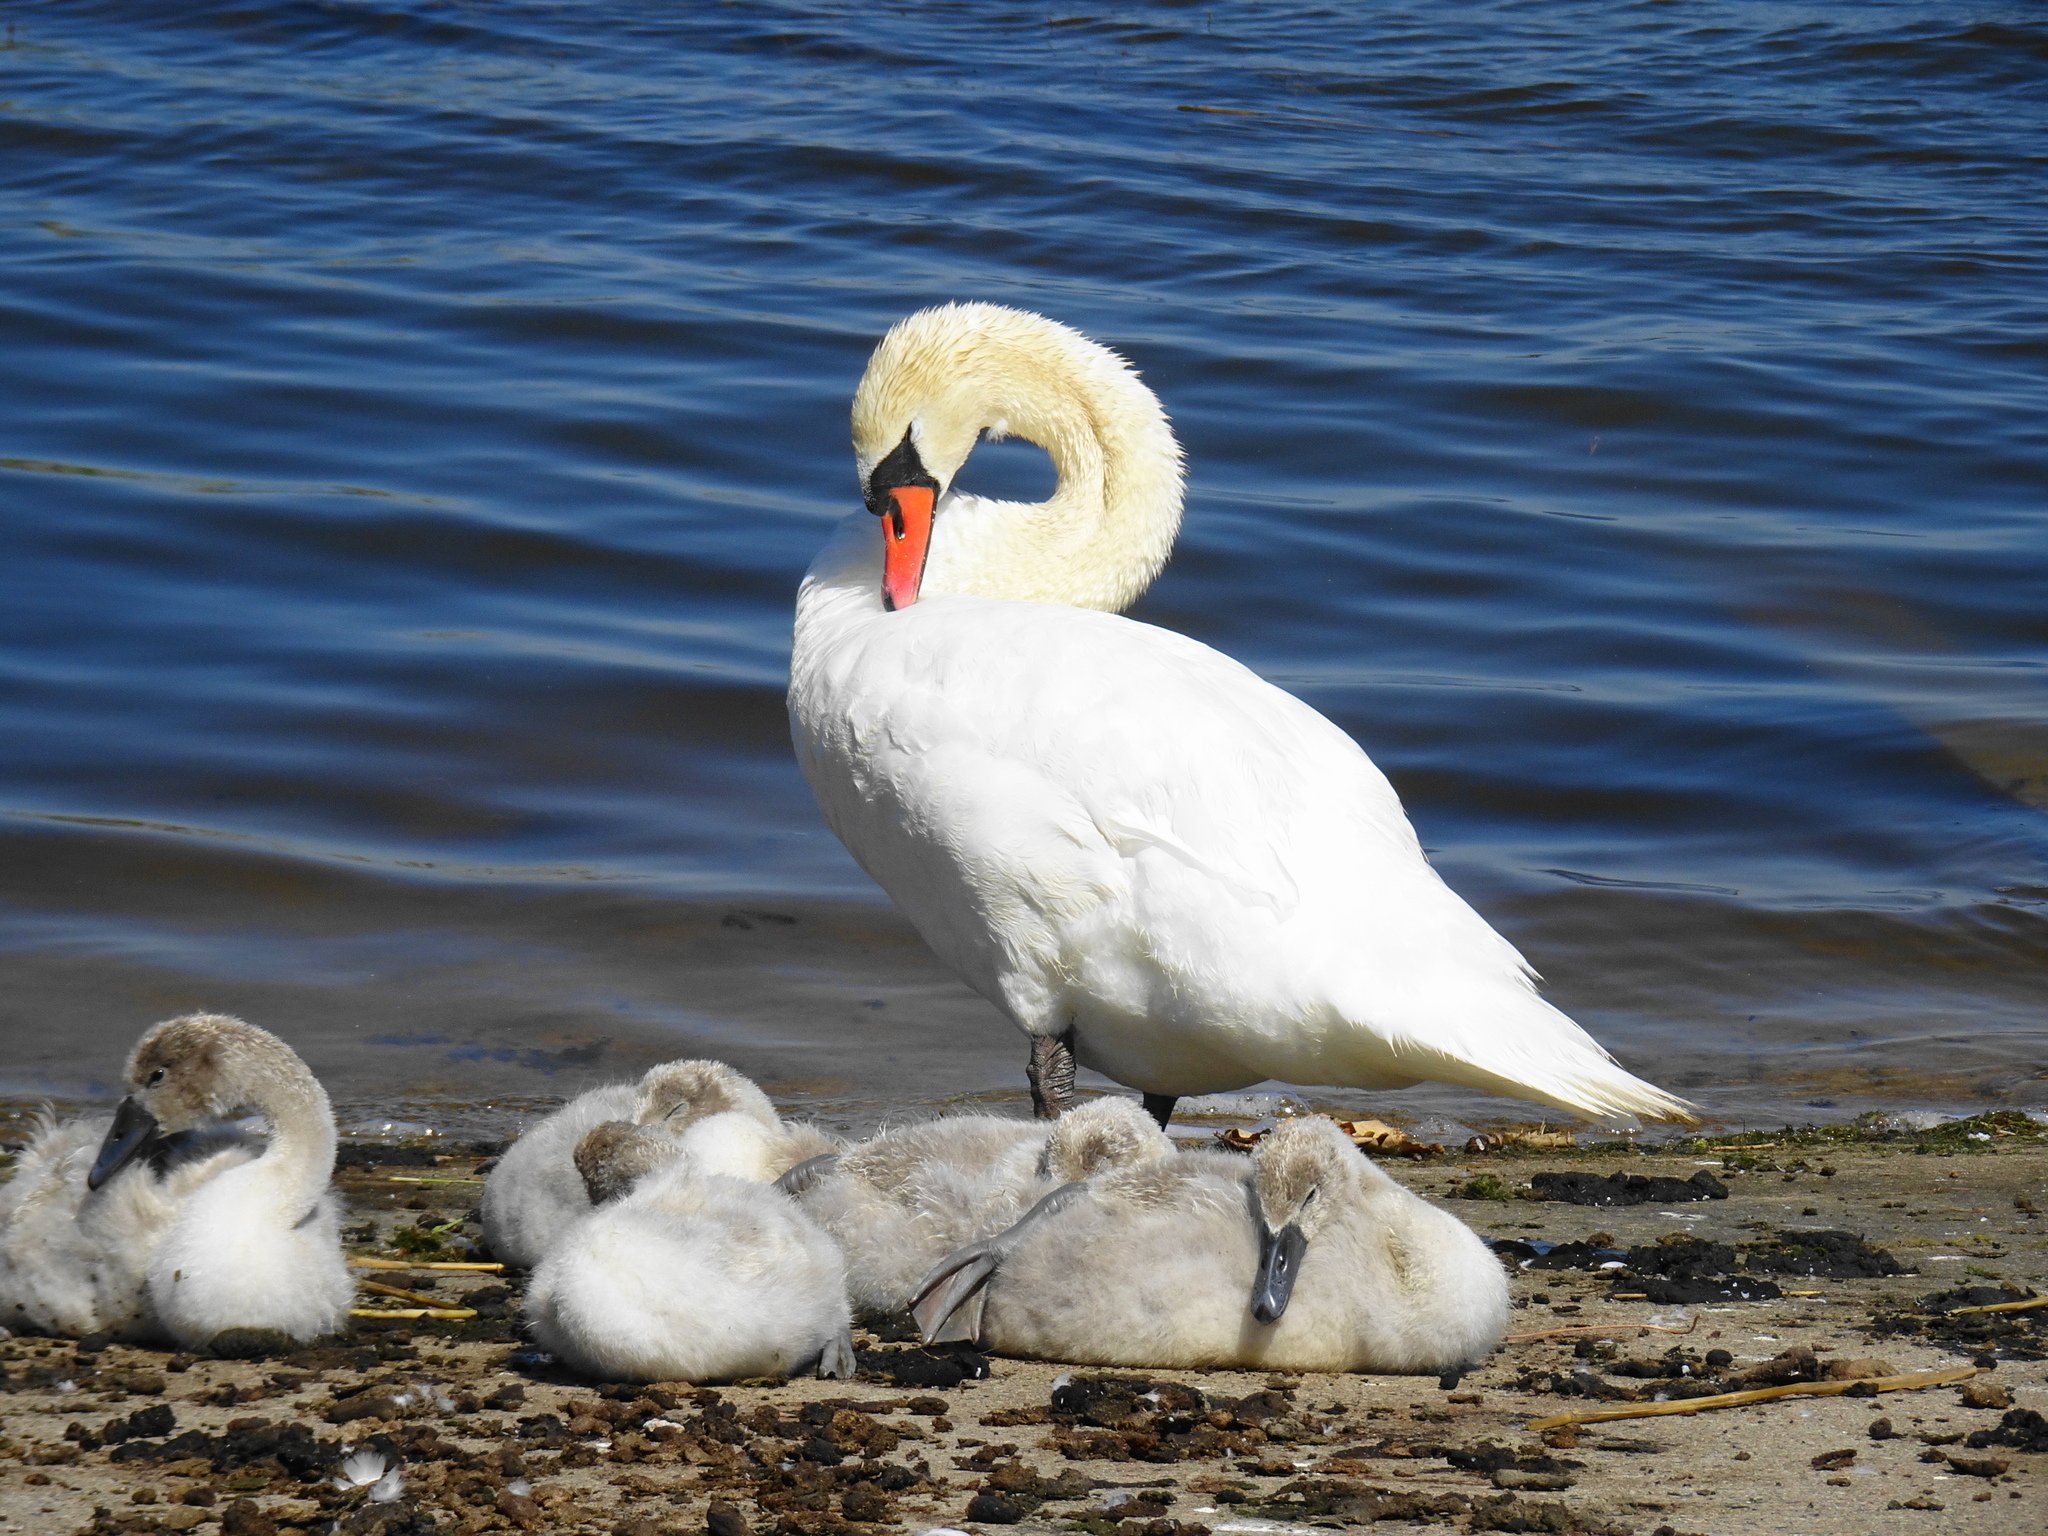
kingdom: Animalia
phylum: Chordata
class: Aves
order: Anseriformes
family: Anatidae
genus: Cygnus
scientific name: Cygnus olor
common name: Mute swan
